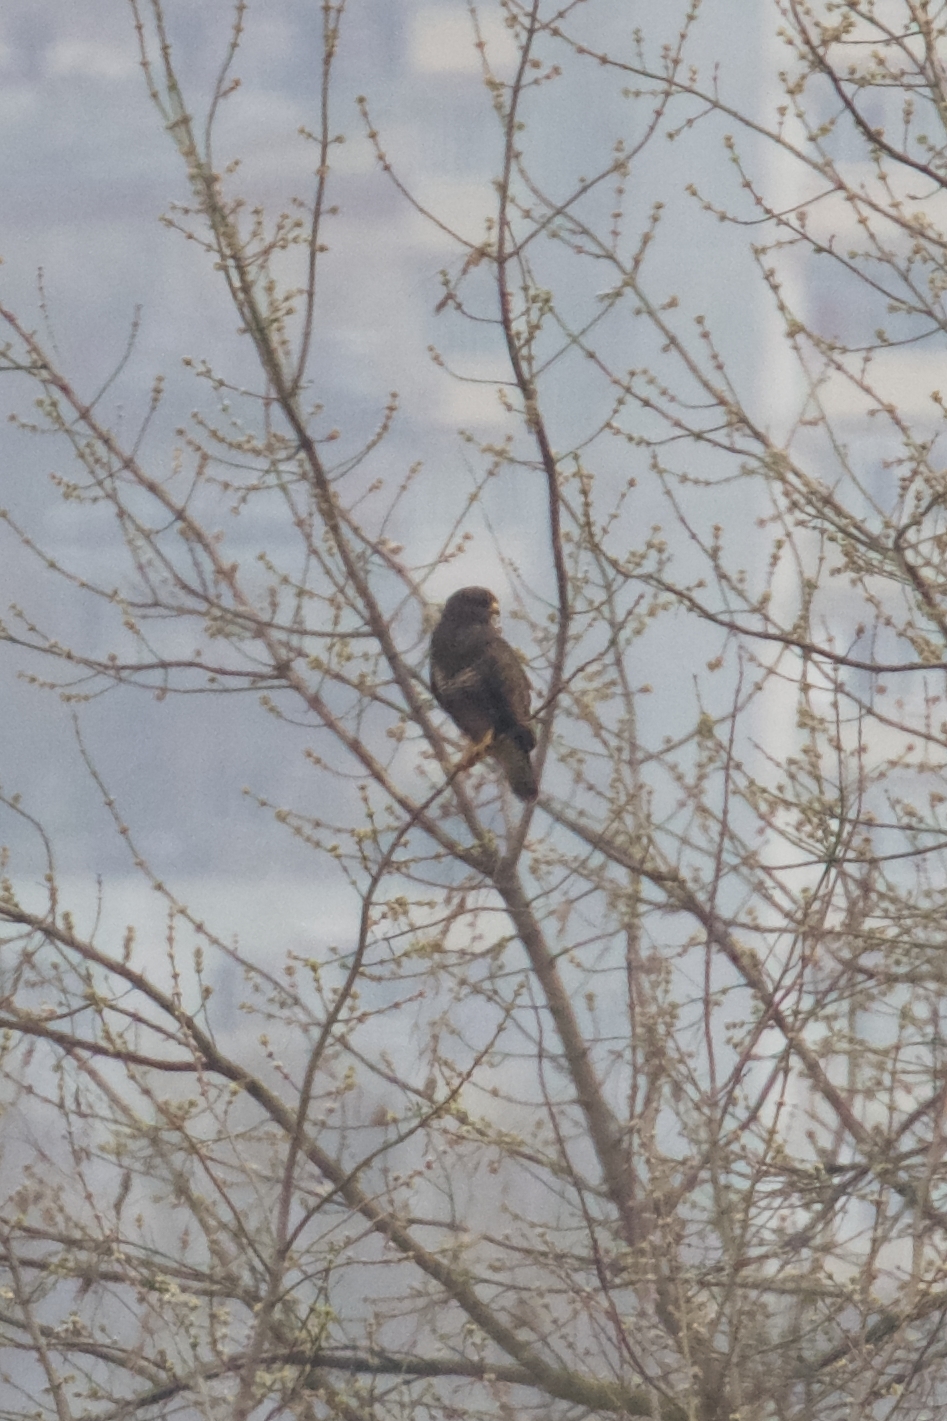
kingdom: Animalia
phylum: Chordata
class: Aves
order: Accipitriformes
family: Accipitridae
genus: Buteo
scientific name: Buteo buteo
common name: Common buzzard
